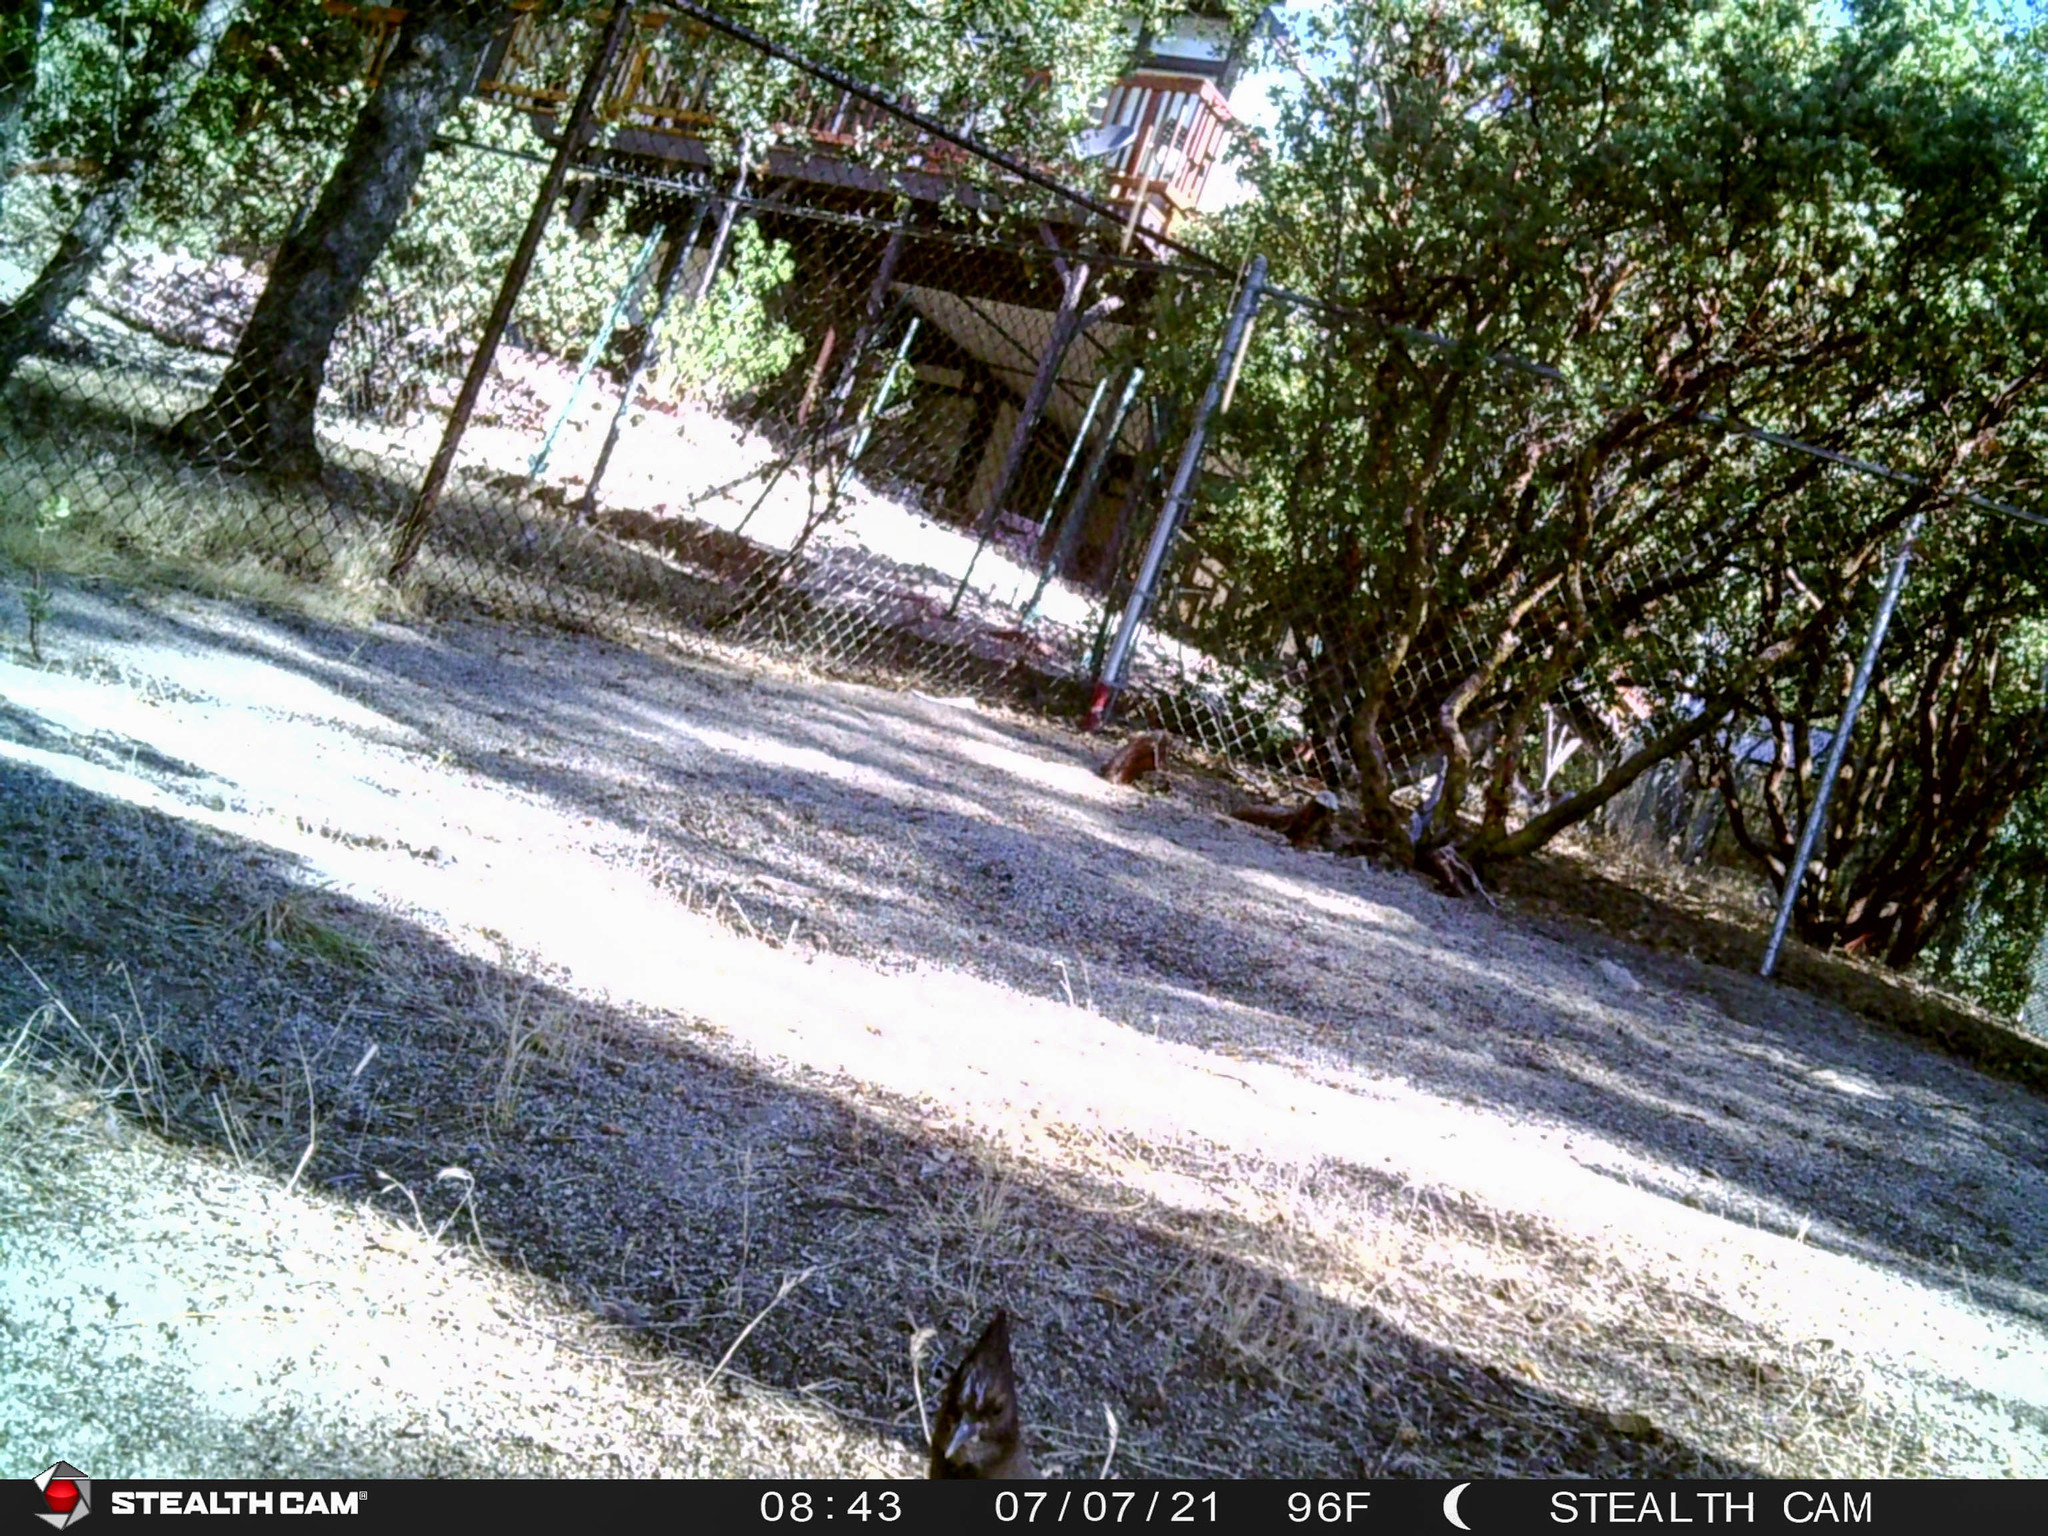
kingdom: Animalia
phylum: Chordata
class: Aves
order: Passeriformes
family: Corvidae
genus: Cyanocitta
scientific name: Cyanocitta stelleri
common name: Steller's jay
